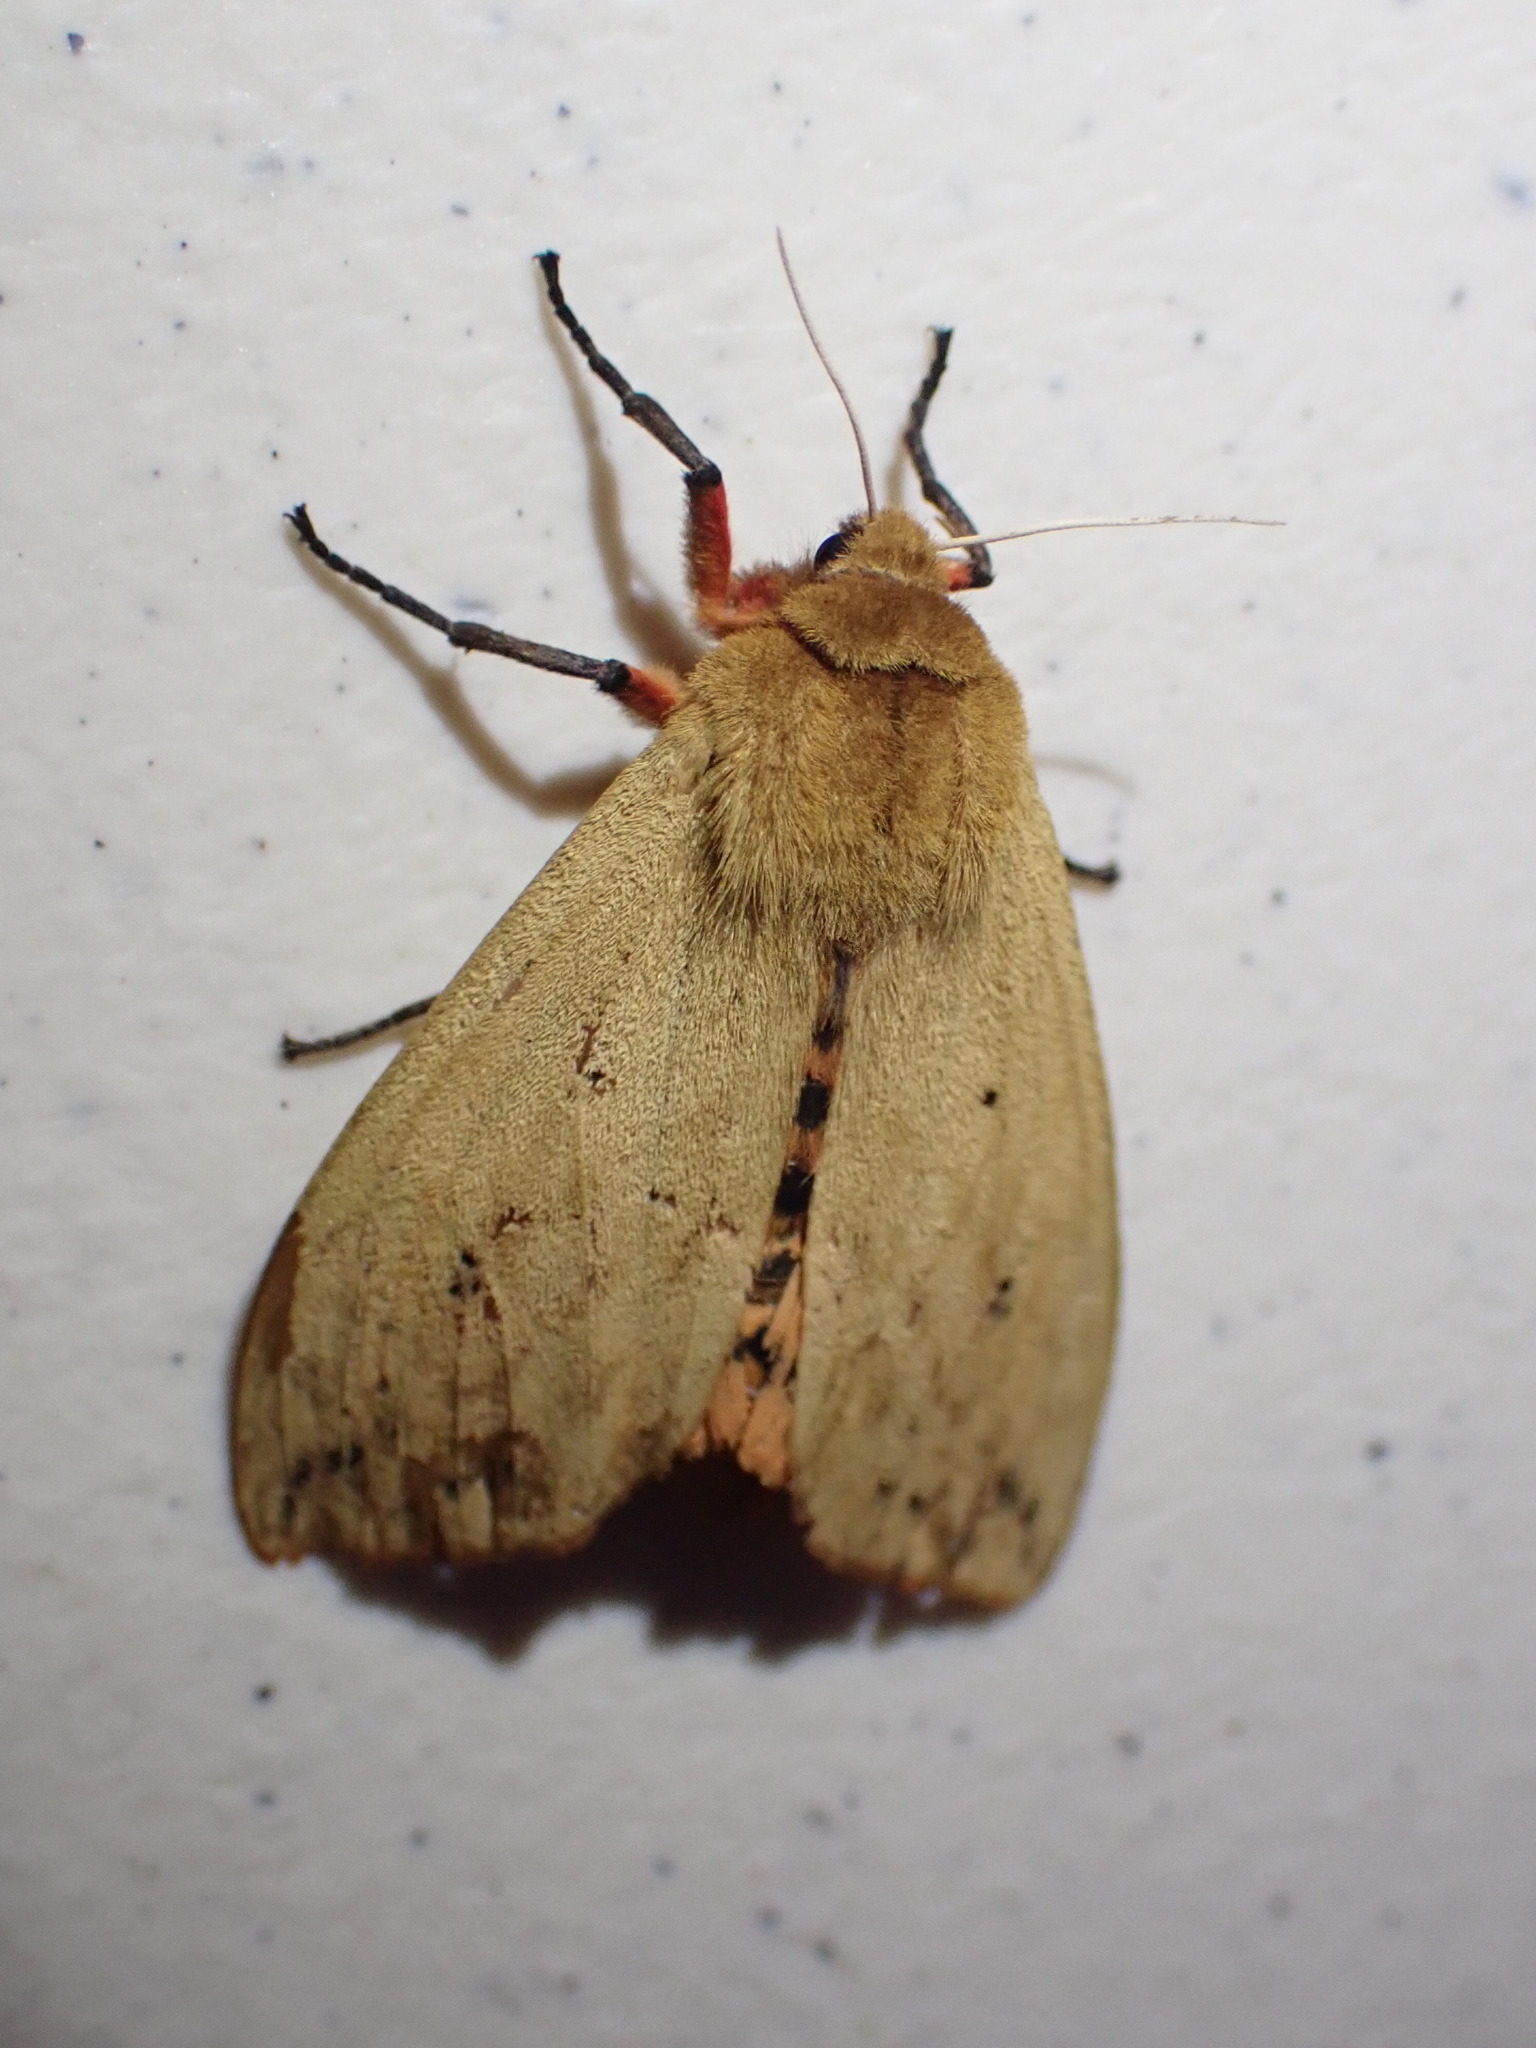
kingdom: Animalia
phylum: Arthropoda
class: Insecta
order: Lepidoptera
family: Erebidae
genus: Pyrrharctia
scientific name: Pyrrharctia isabella
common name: Isabella tiger moth
